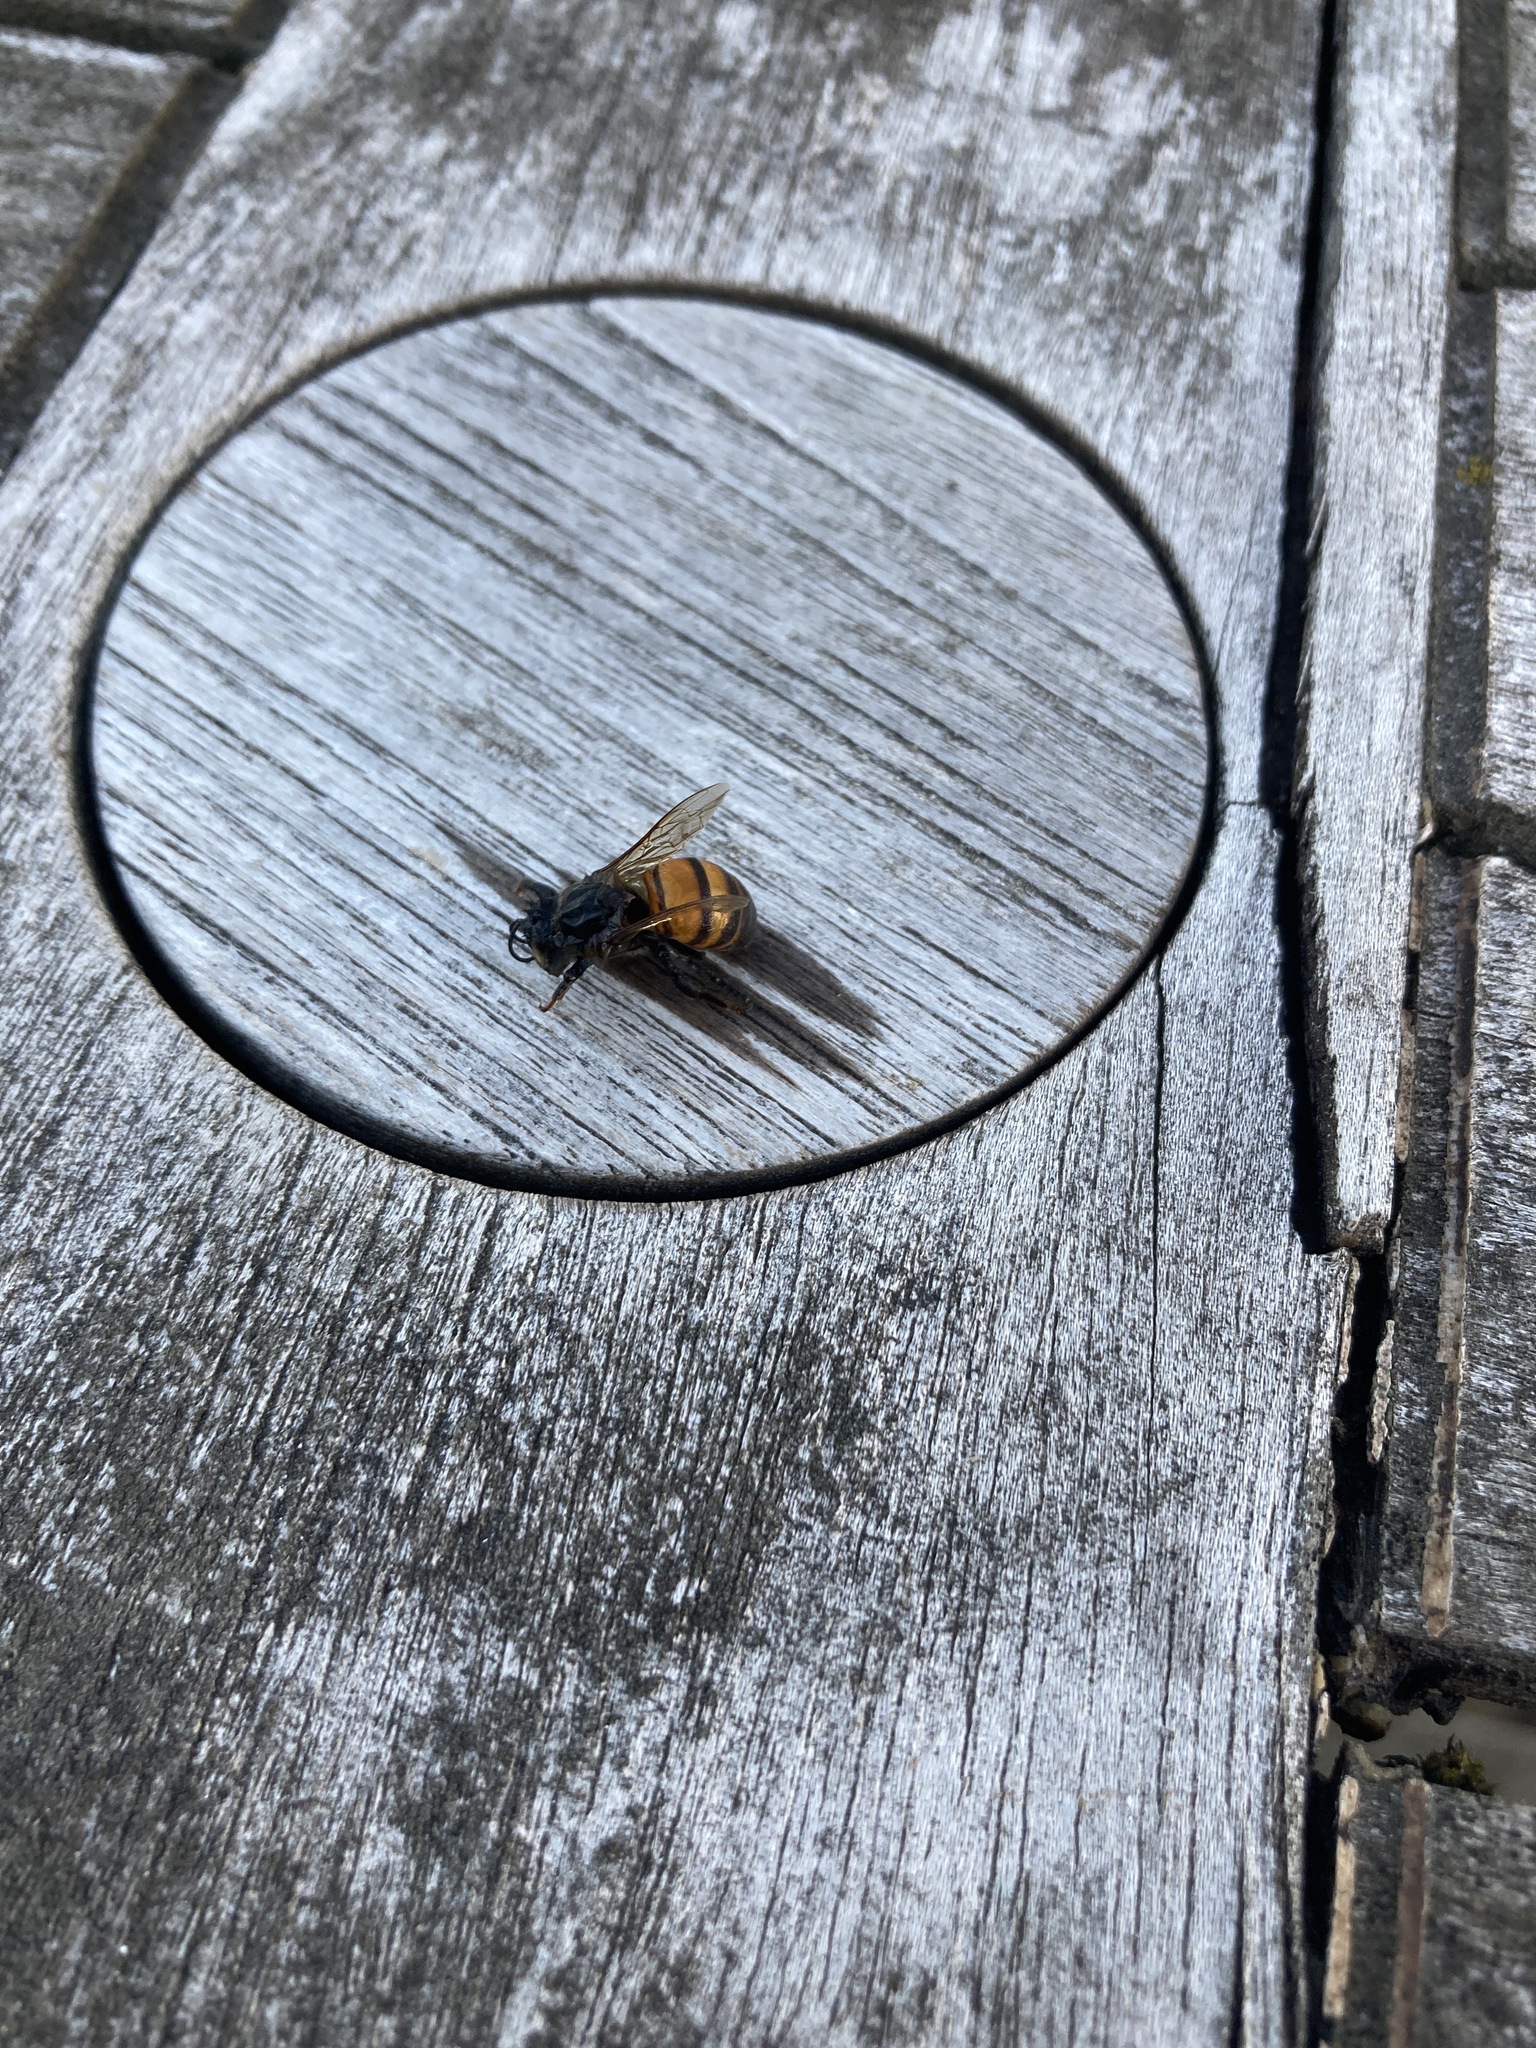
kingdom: Animalia
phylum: Arthropoda
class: Insecta
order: Hymenoptera
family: Apidae
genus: Apis
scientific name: Apis mellifera
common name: Honey bee
